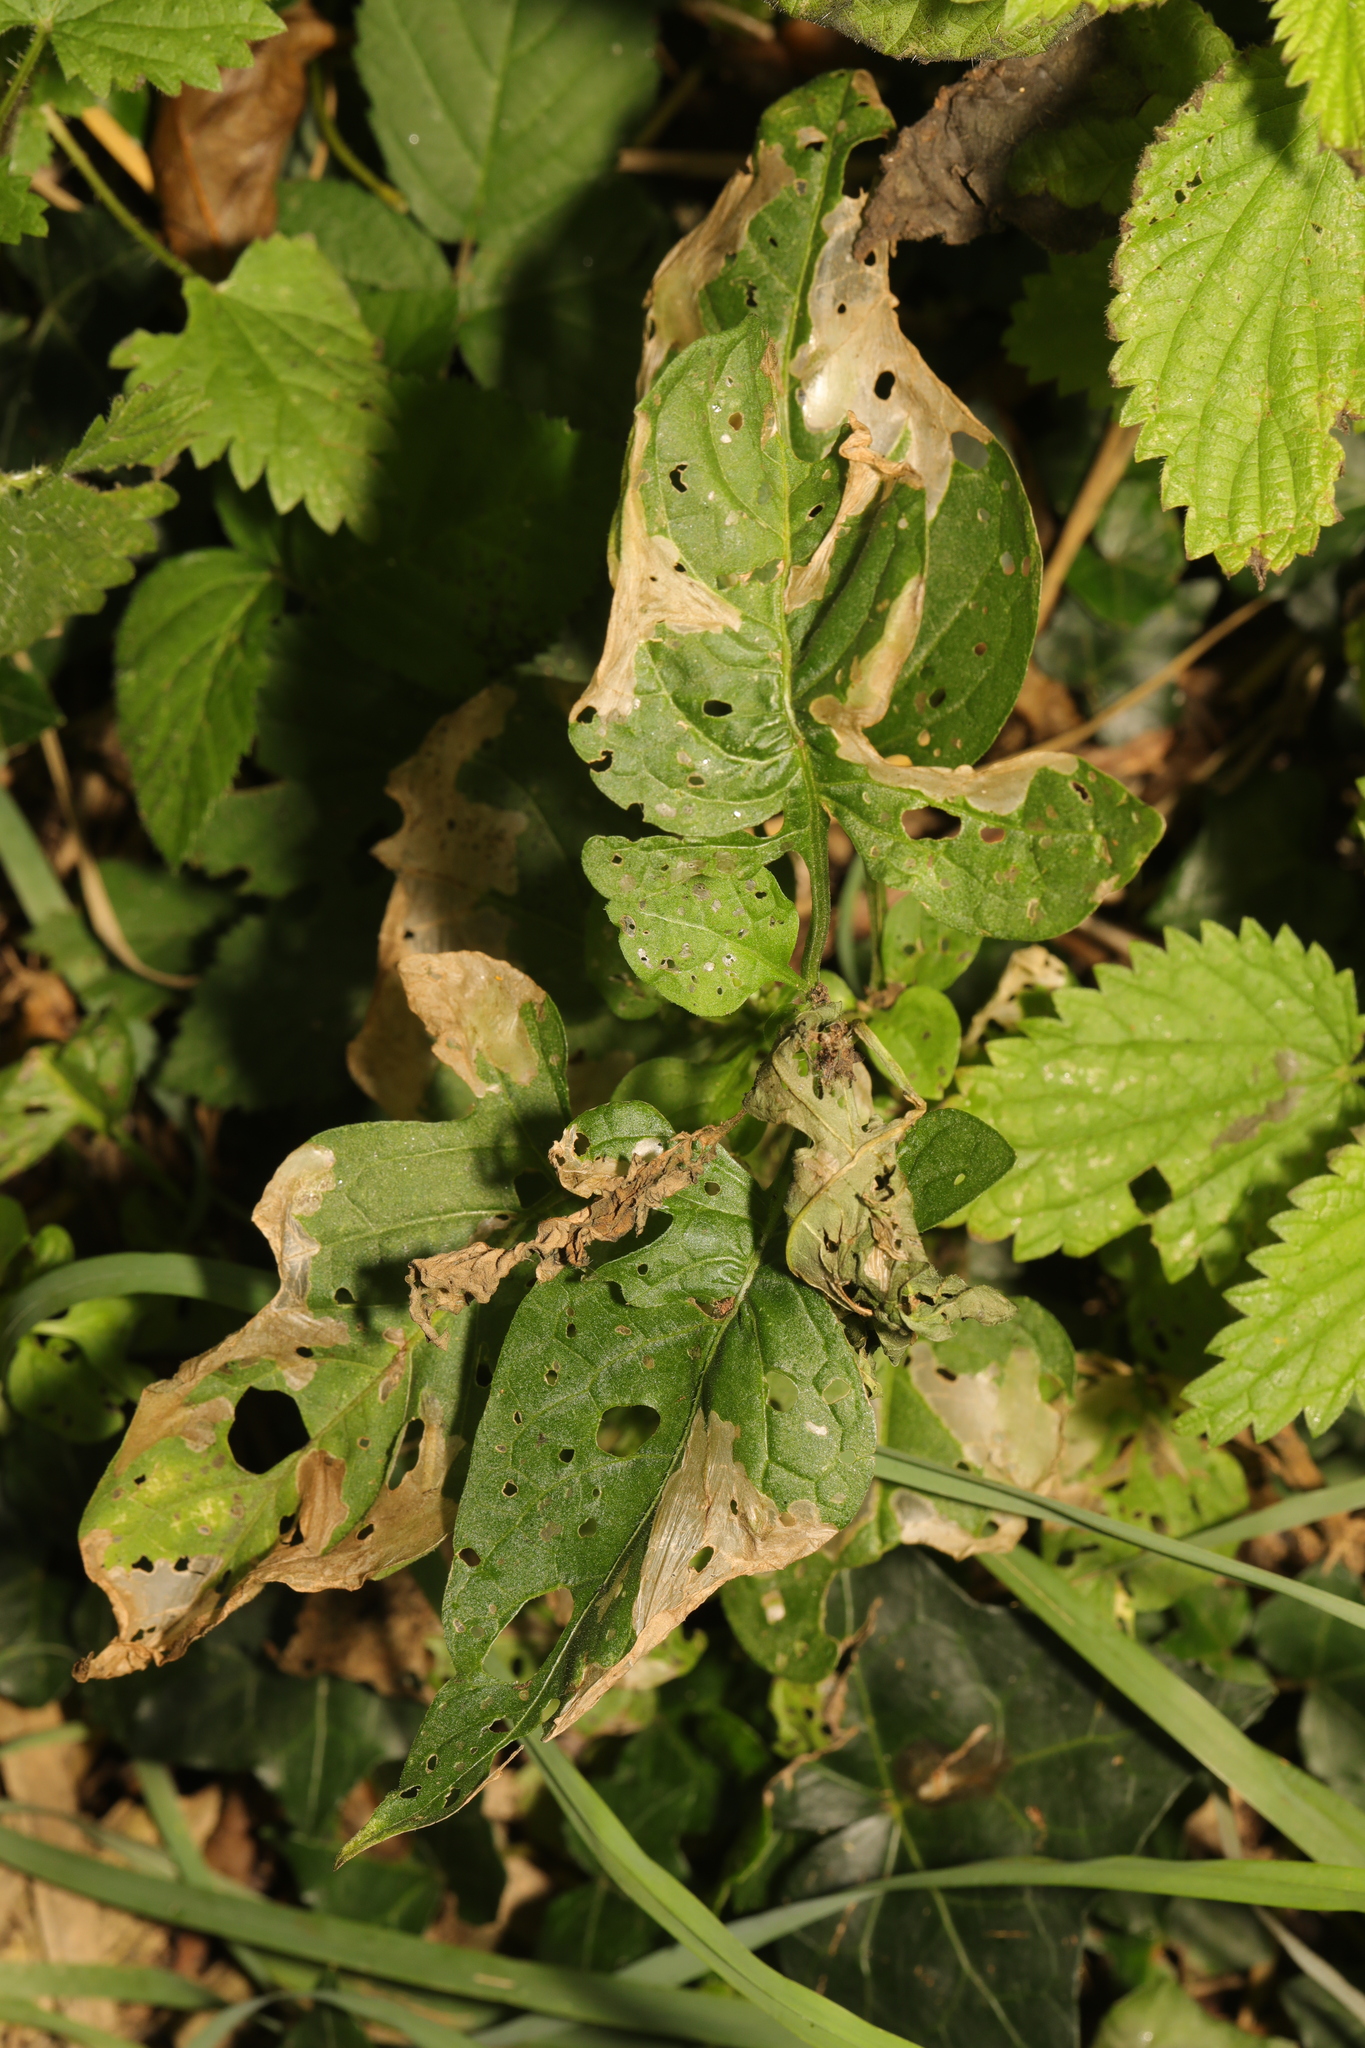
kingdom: Plantae
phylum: Tracheophyta
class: Magnoliopsida
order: Solanales
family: Solanaceae
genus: Solanum
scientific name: Solanum dulcamara
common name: Climbing nightshade
